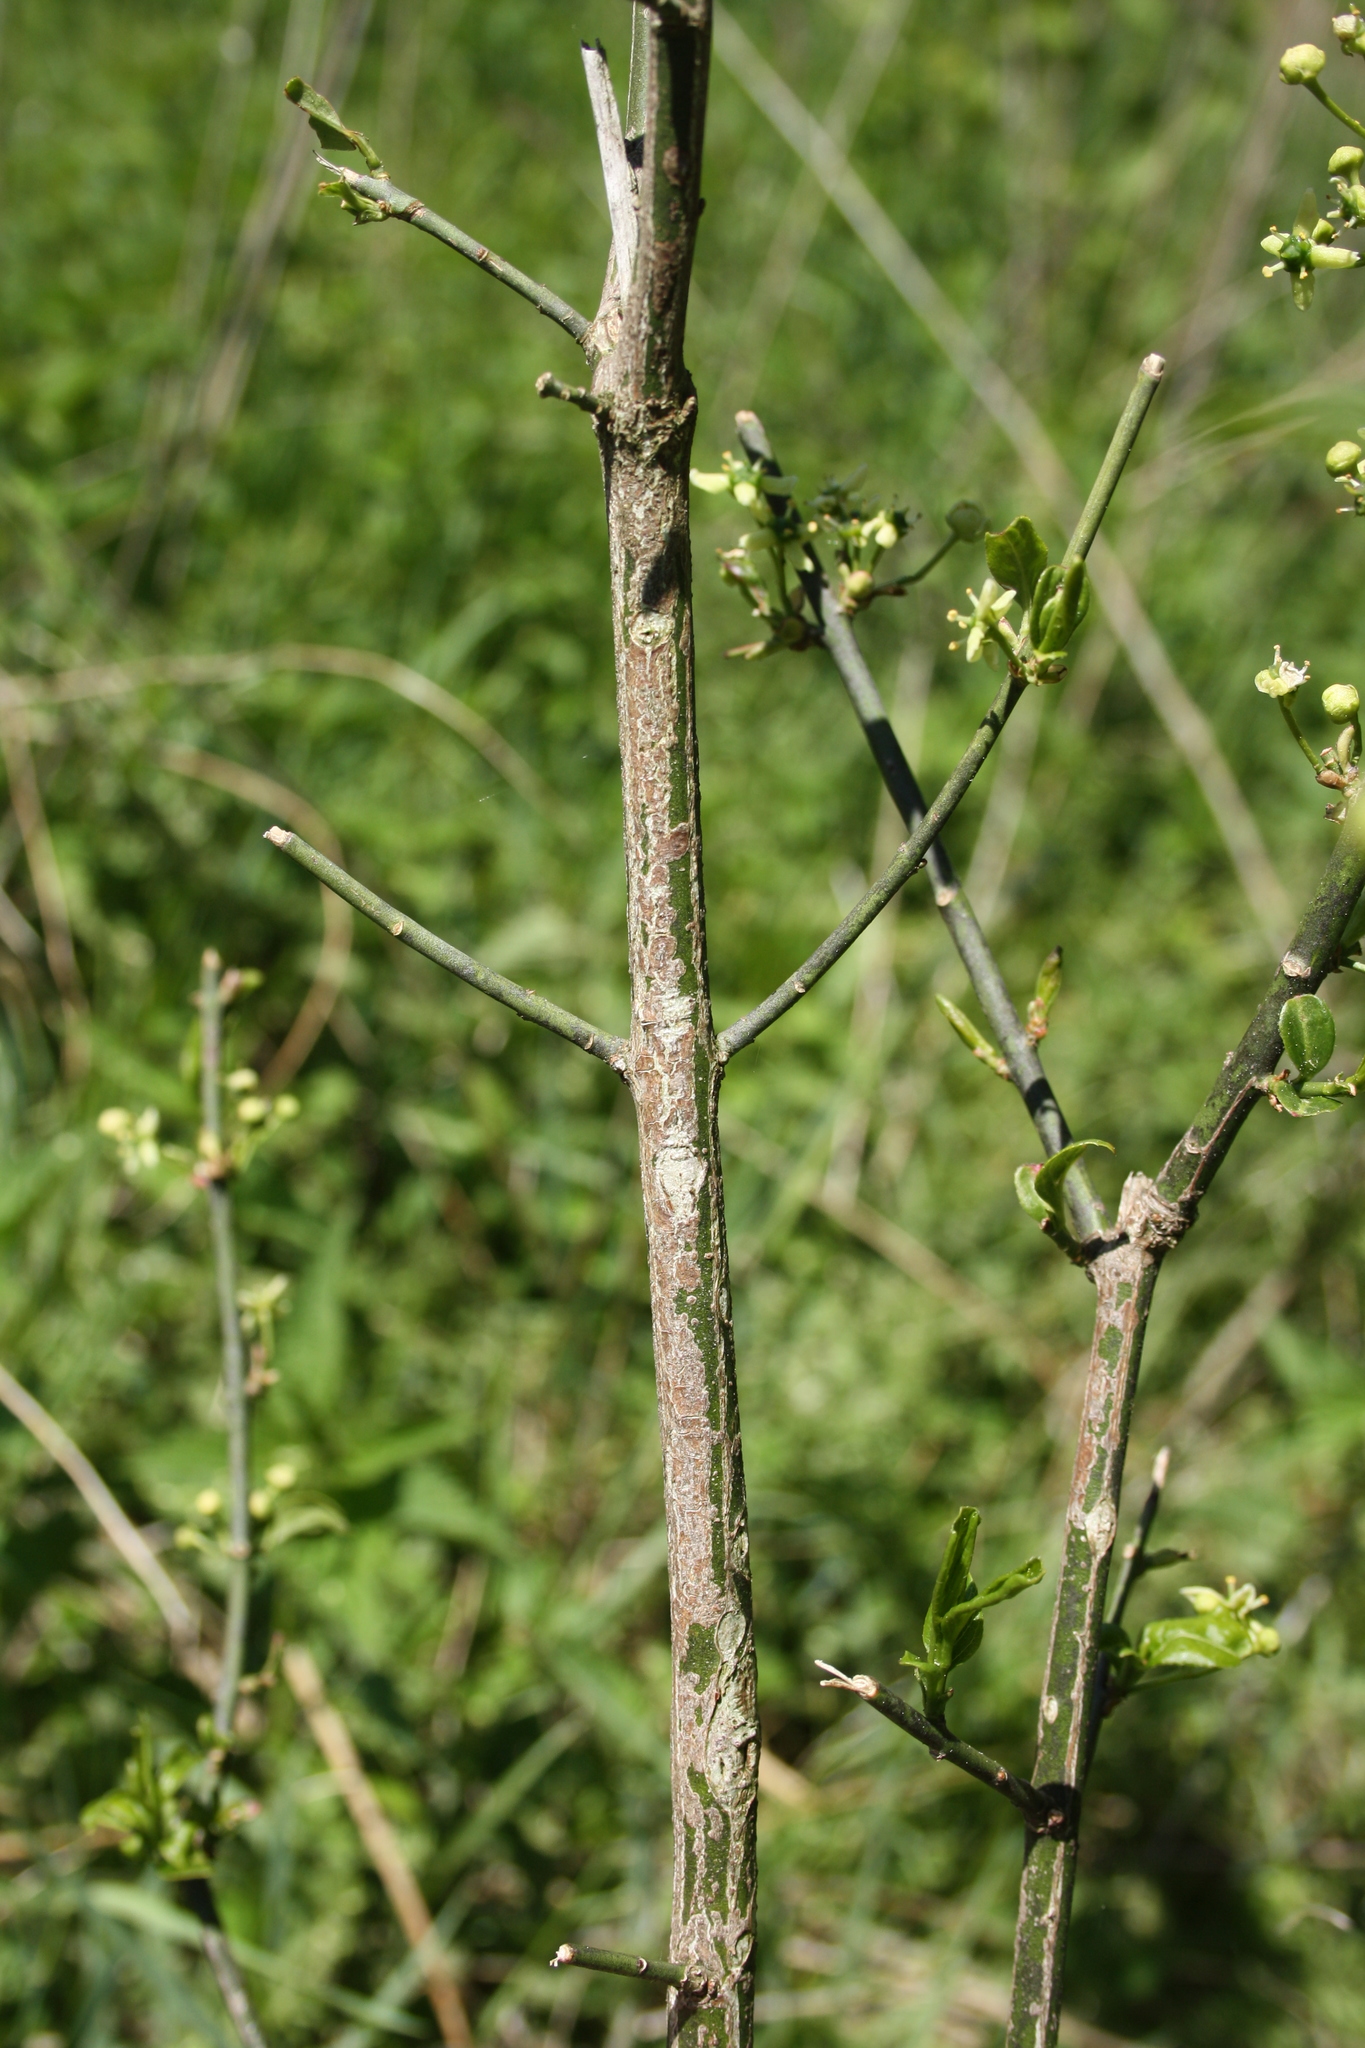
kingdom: Plantae
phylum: Tracheophyta
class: Magnoliopsida
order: Celastrales
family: Celastraceae
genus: Euonymus
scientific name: Euonymus europaeus
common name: Spindle
